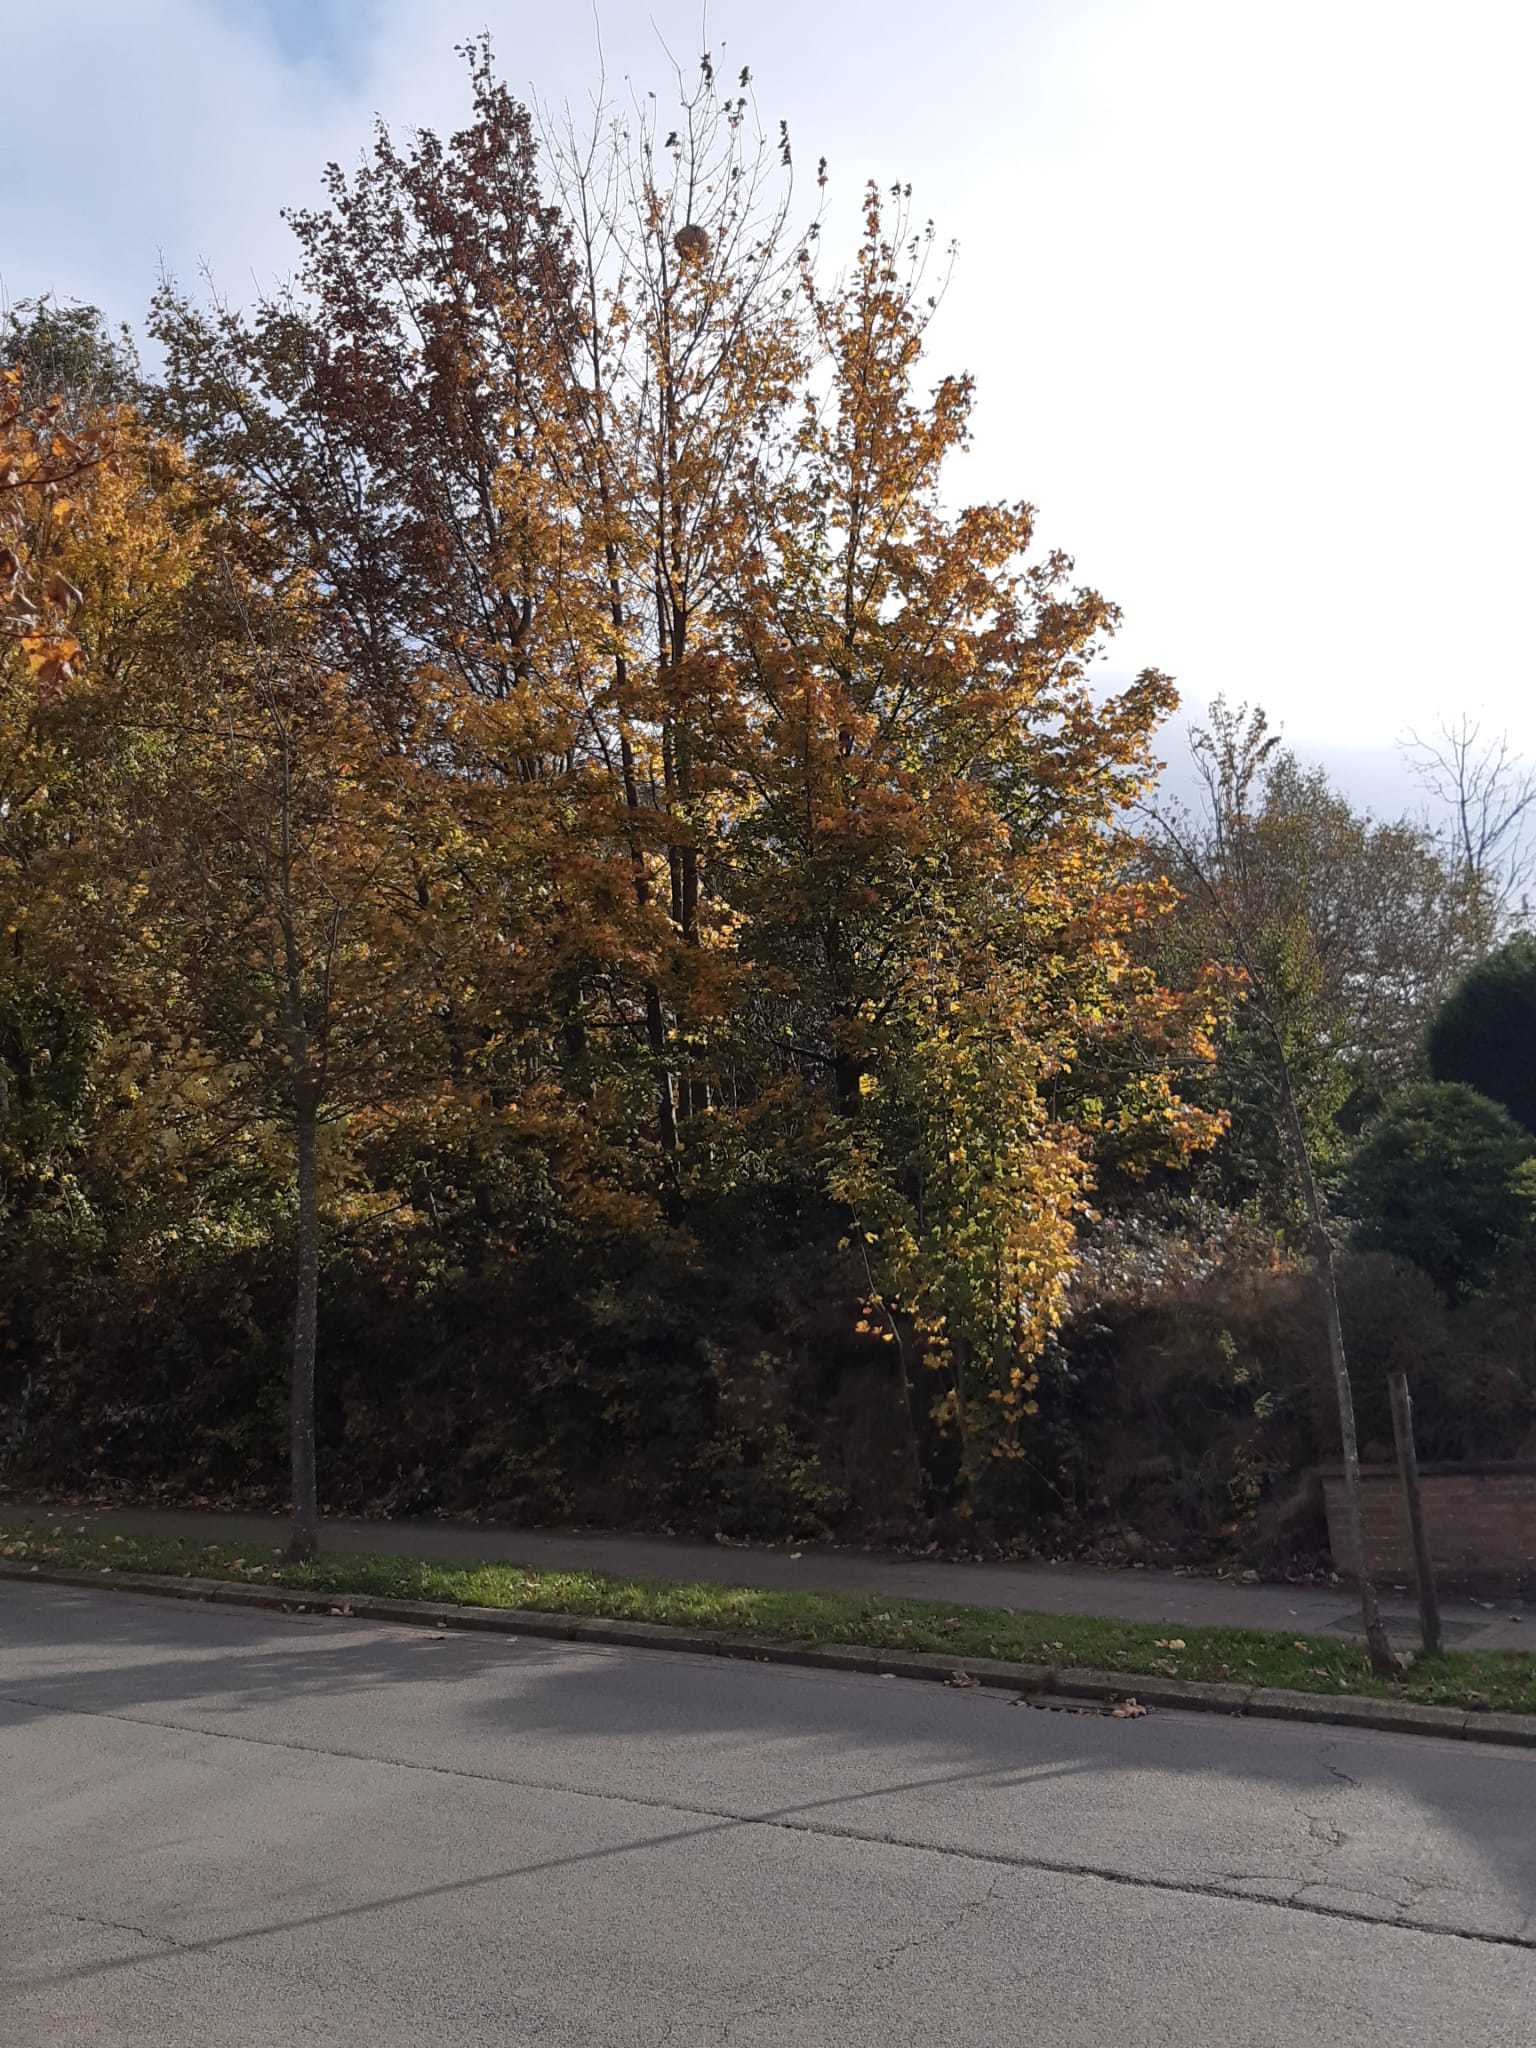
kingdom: Animalia
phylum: Arthropoda
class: Insecta
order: Hymenoptera
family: Vespidae
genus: Vespa
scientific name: Vespa velutina
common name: Asian hornet
